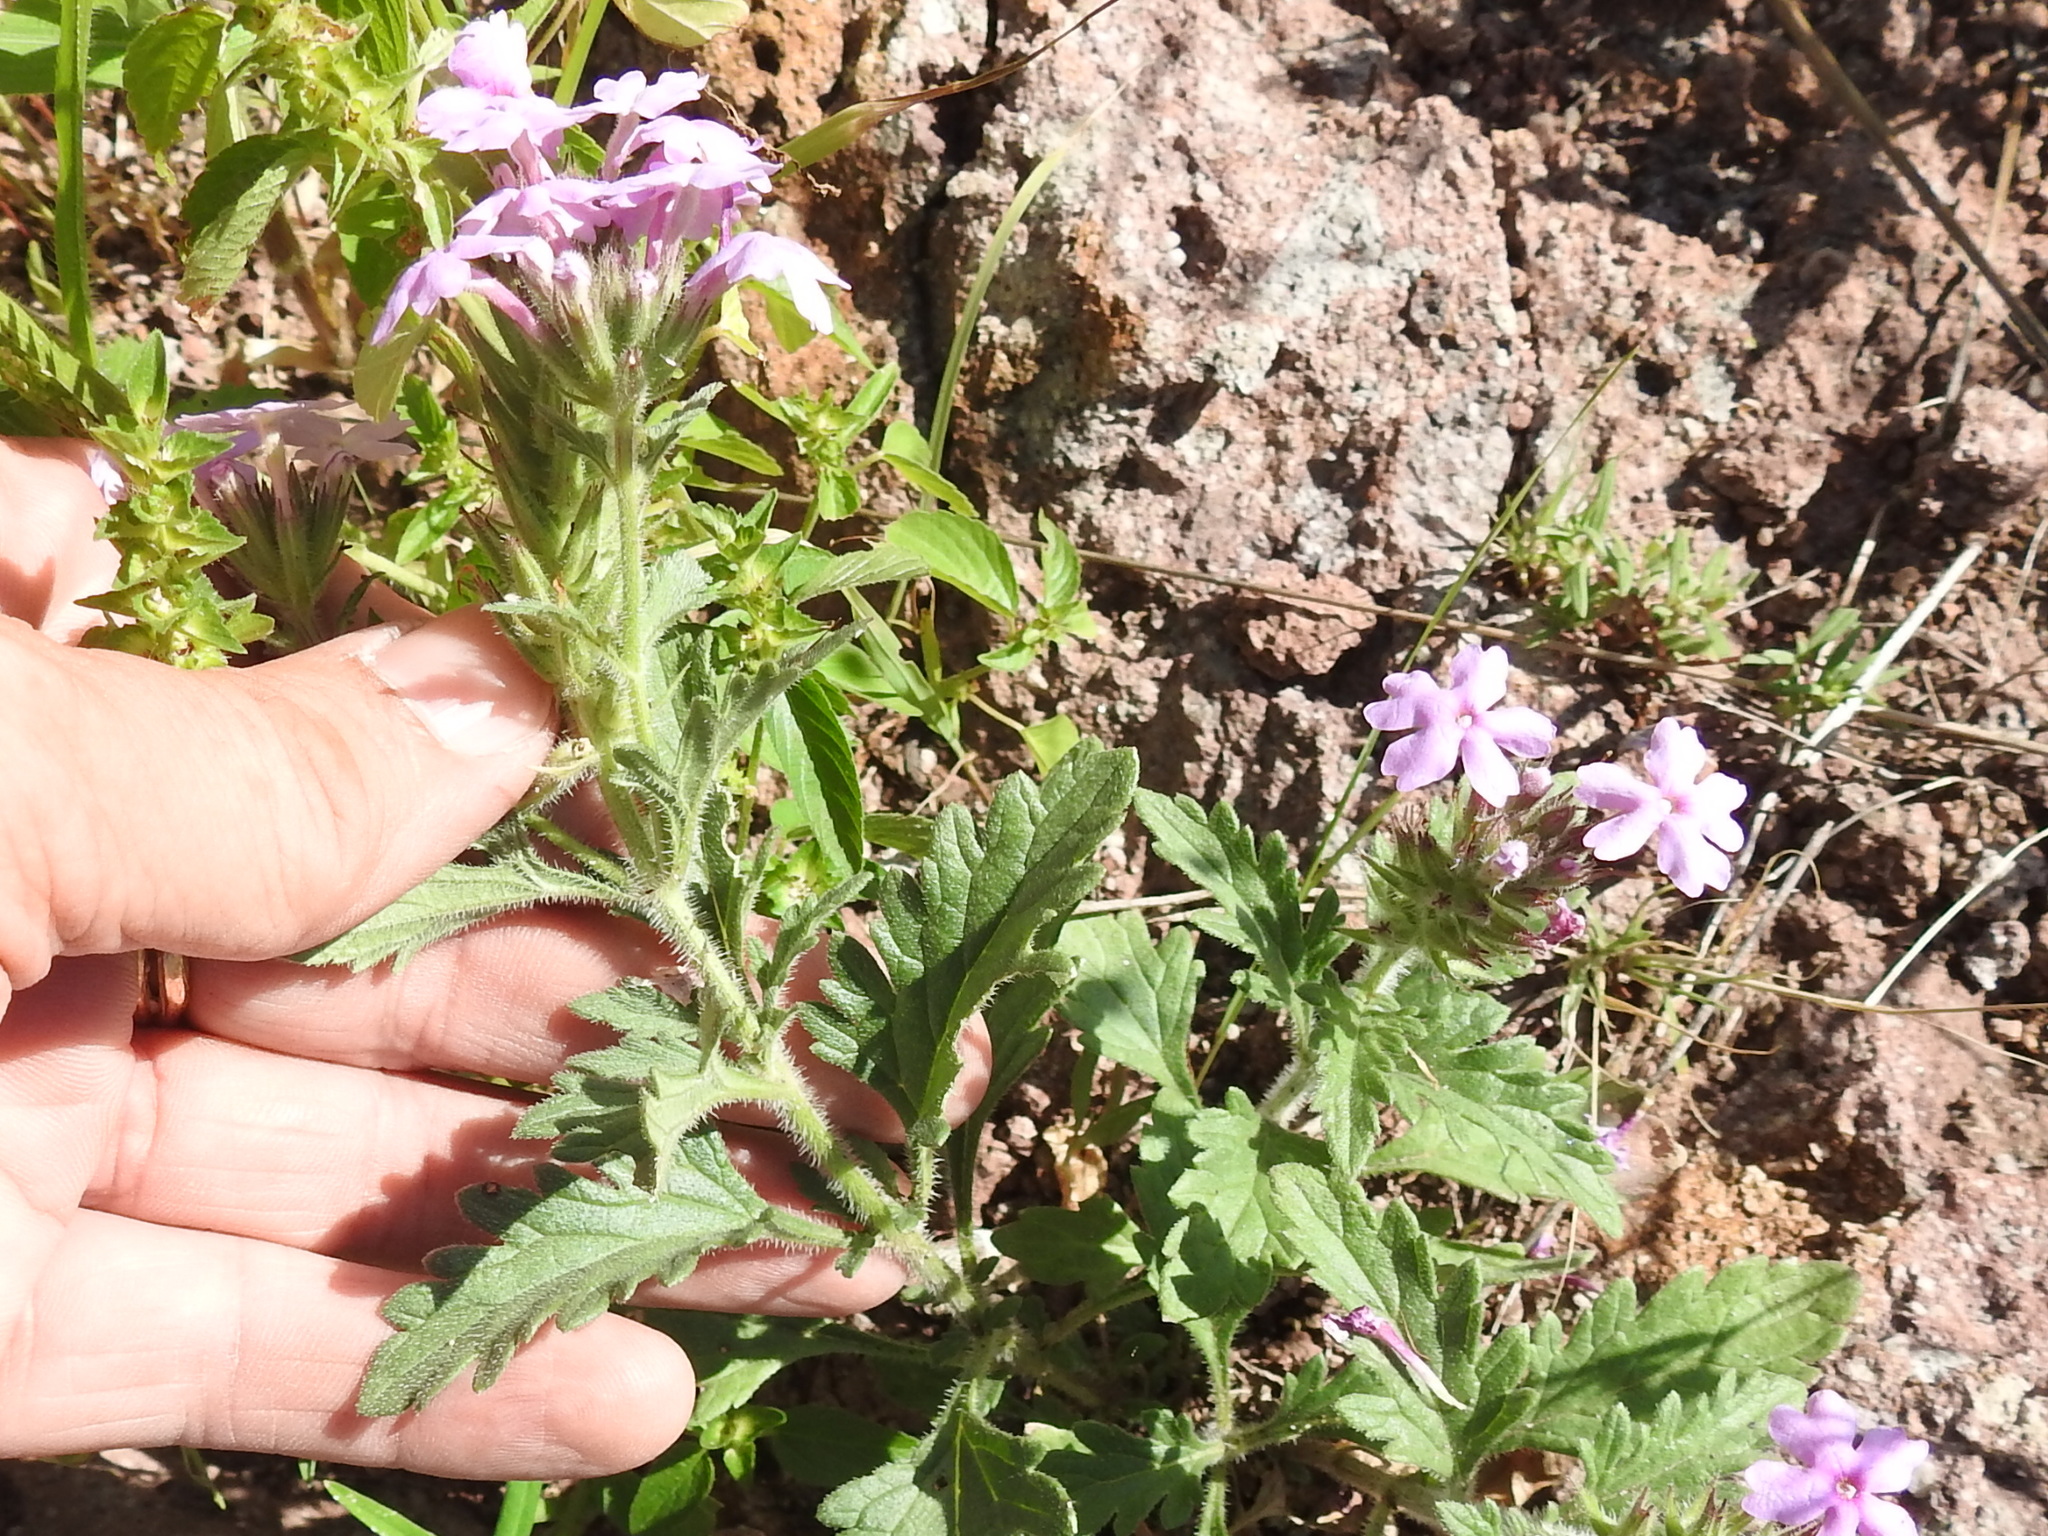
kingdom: Plantae
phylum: Tracheophyta
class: Magnoliopsida
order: Lamiales
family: Verbenaceae
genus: Verbena
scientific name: Verbena gooddingii
